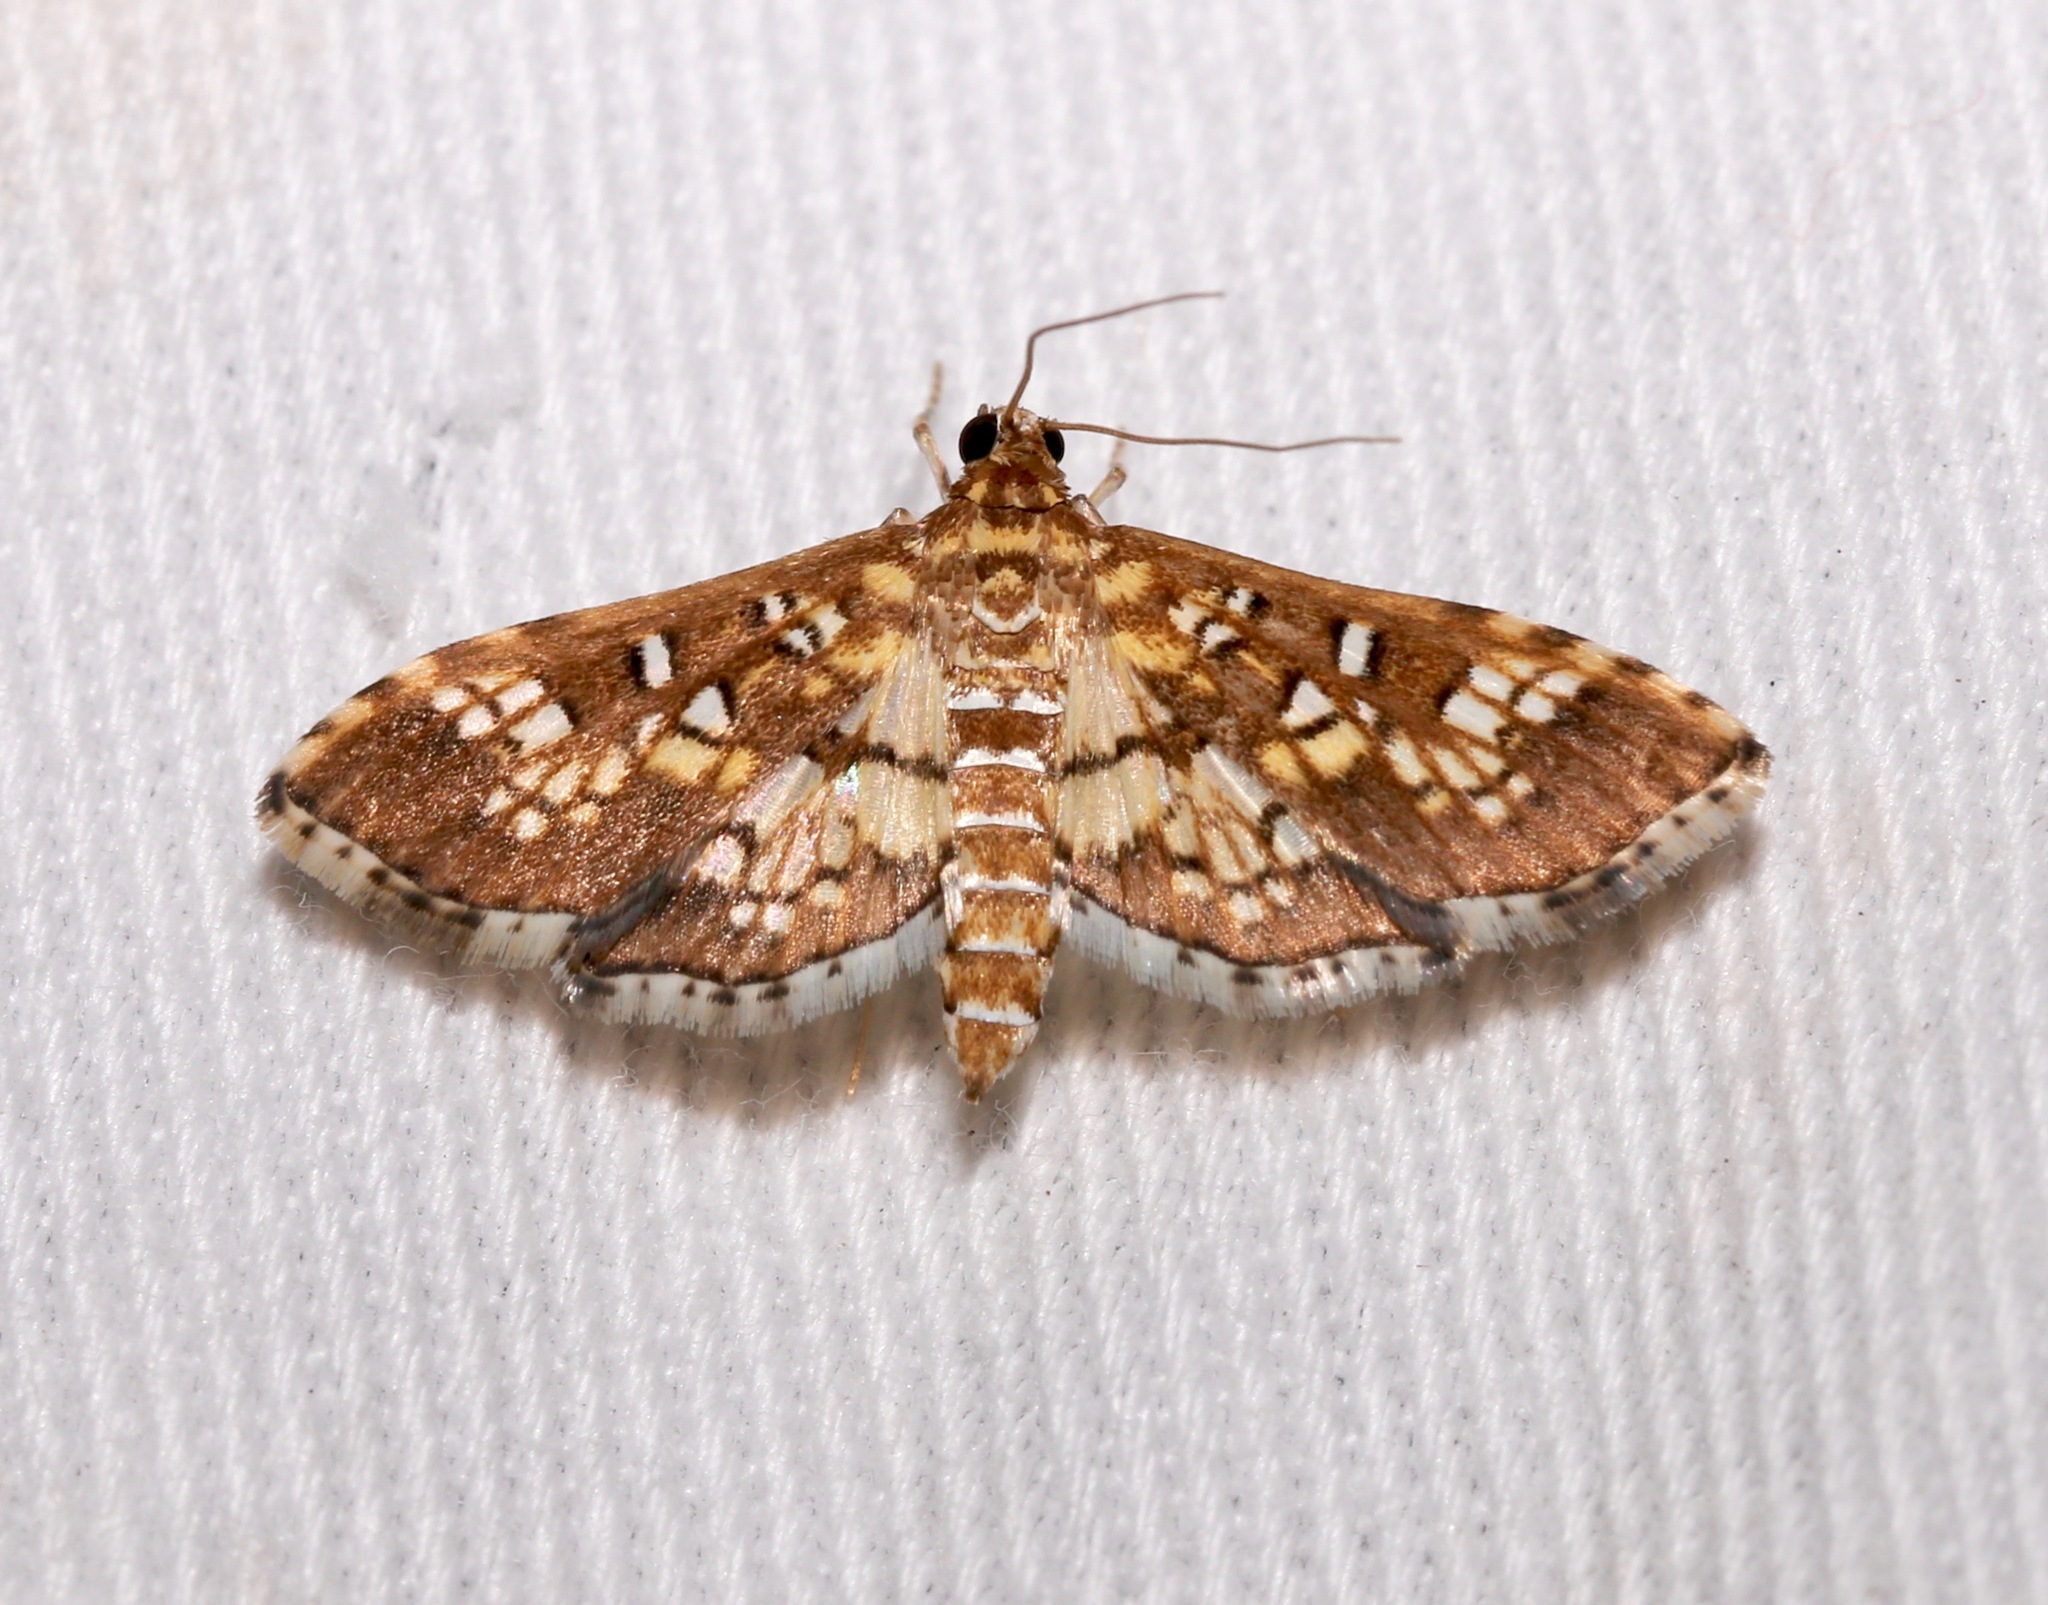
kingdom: Animalia
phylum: Arthropoda
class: Insecta
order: Lepidoptera
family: Crambidae
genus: Samea
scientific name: Samea ecclesialis
